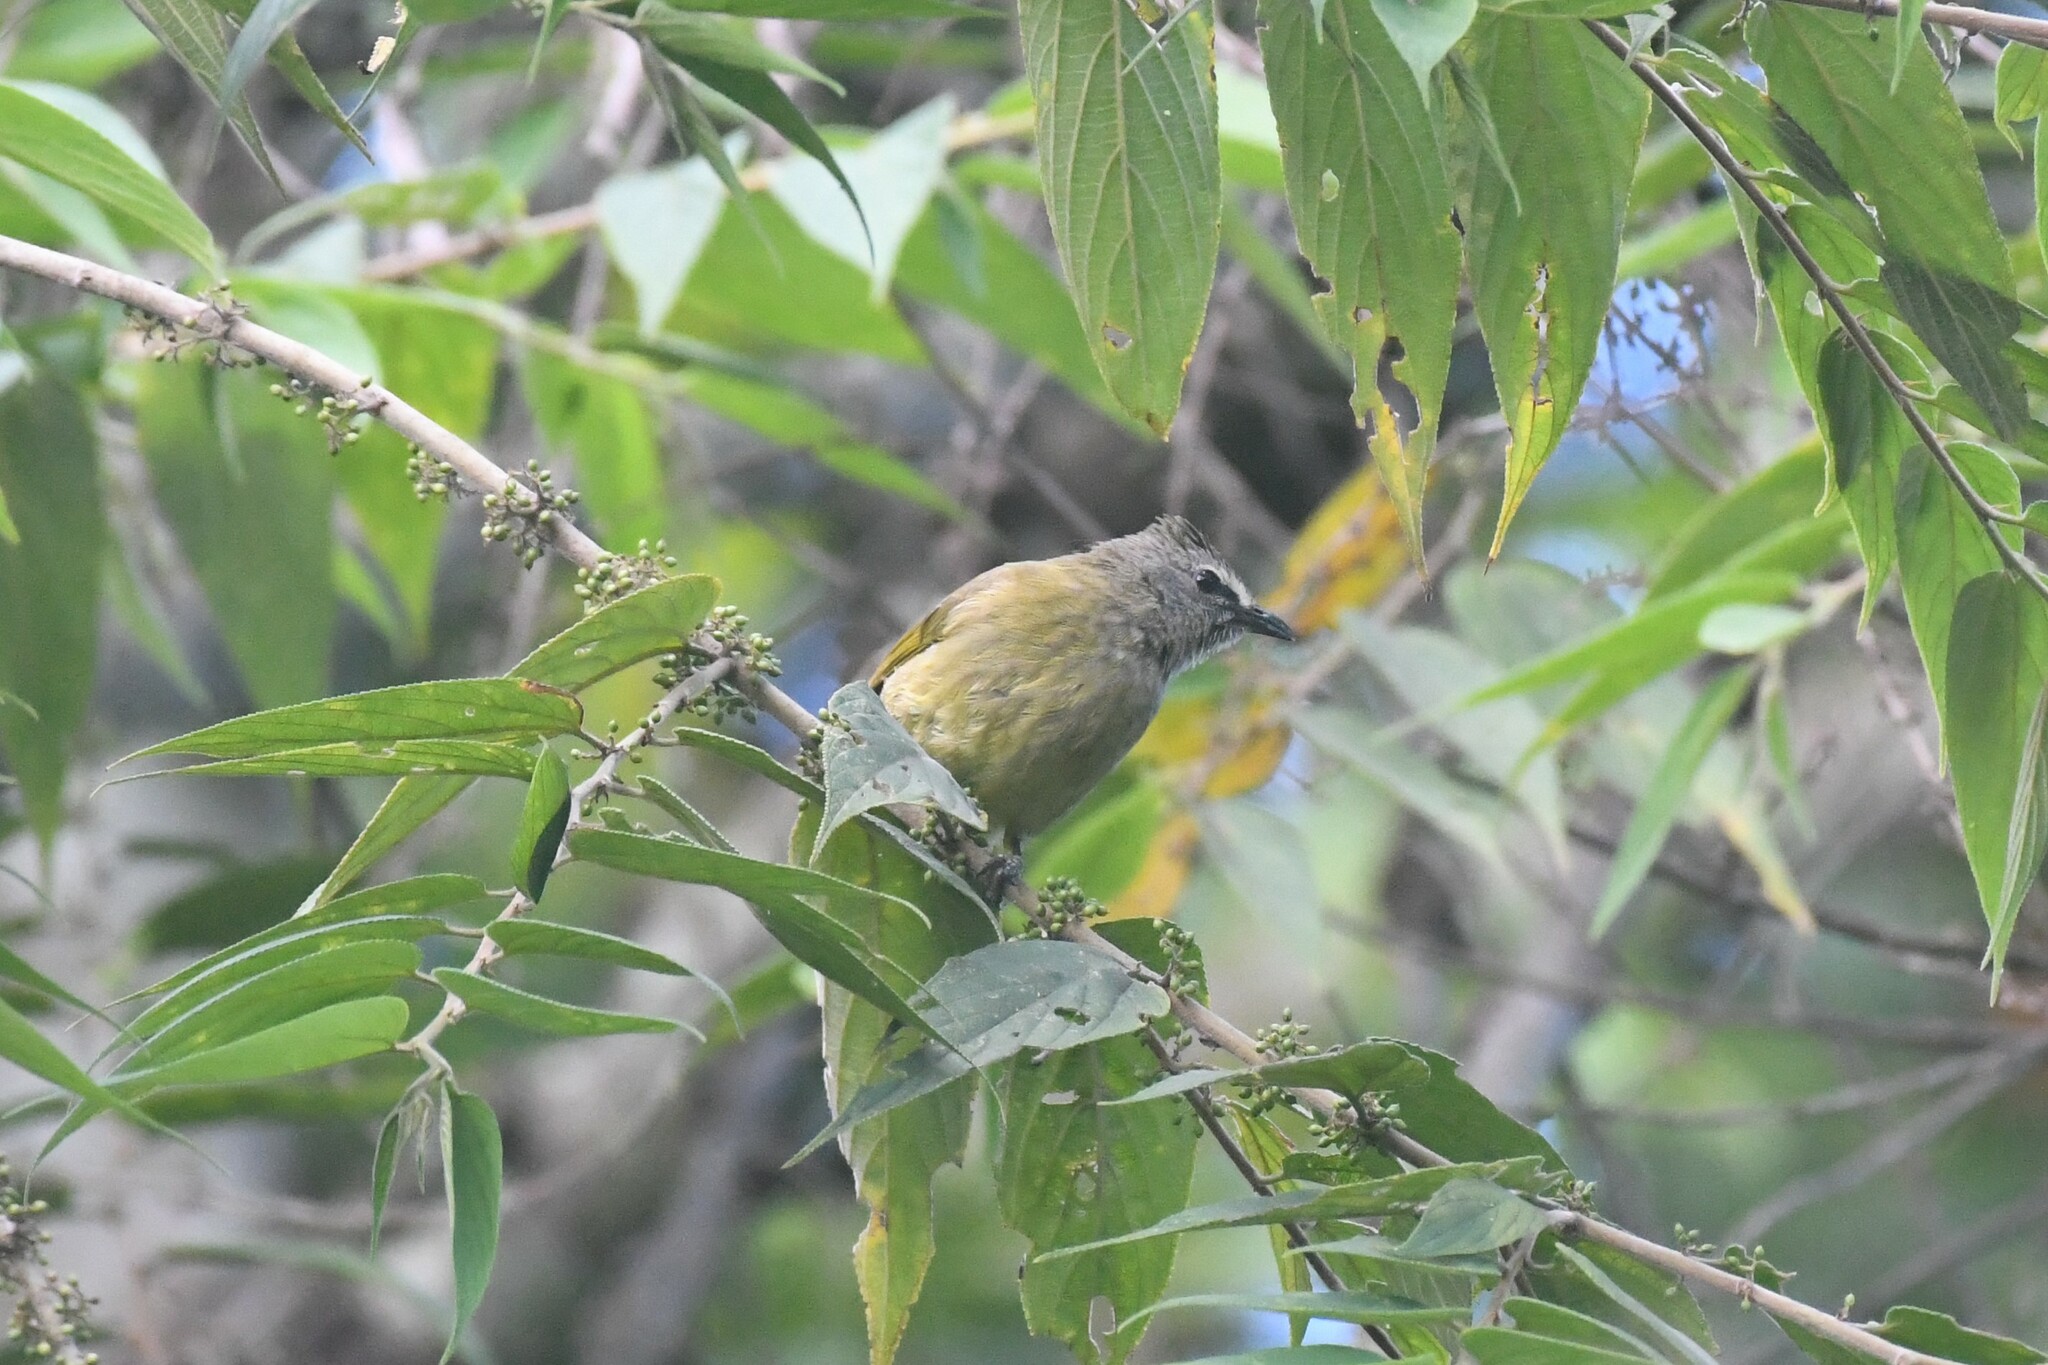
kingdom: Animalia
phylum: Chordata
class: Aves
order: Passeriformes
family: Pycnonotidae
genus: Pycnonotus
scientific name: Pycnonotus flavescens
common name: Flavescent bulbul
